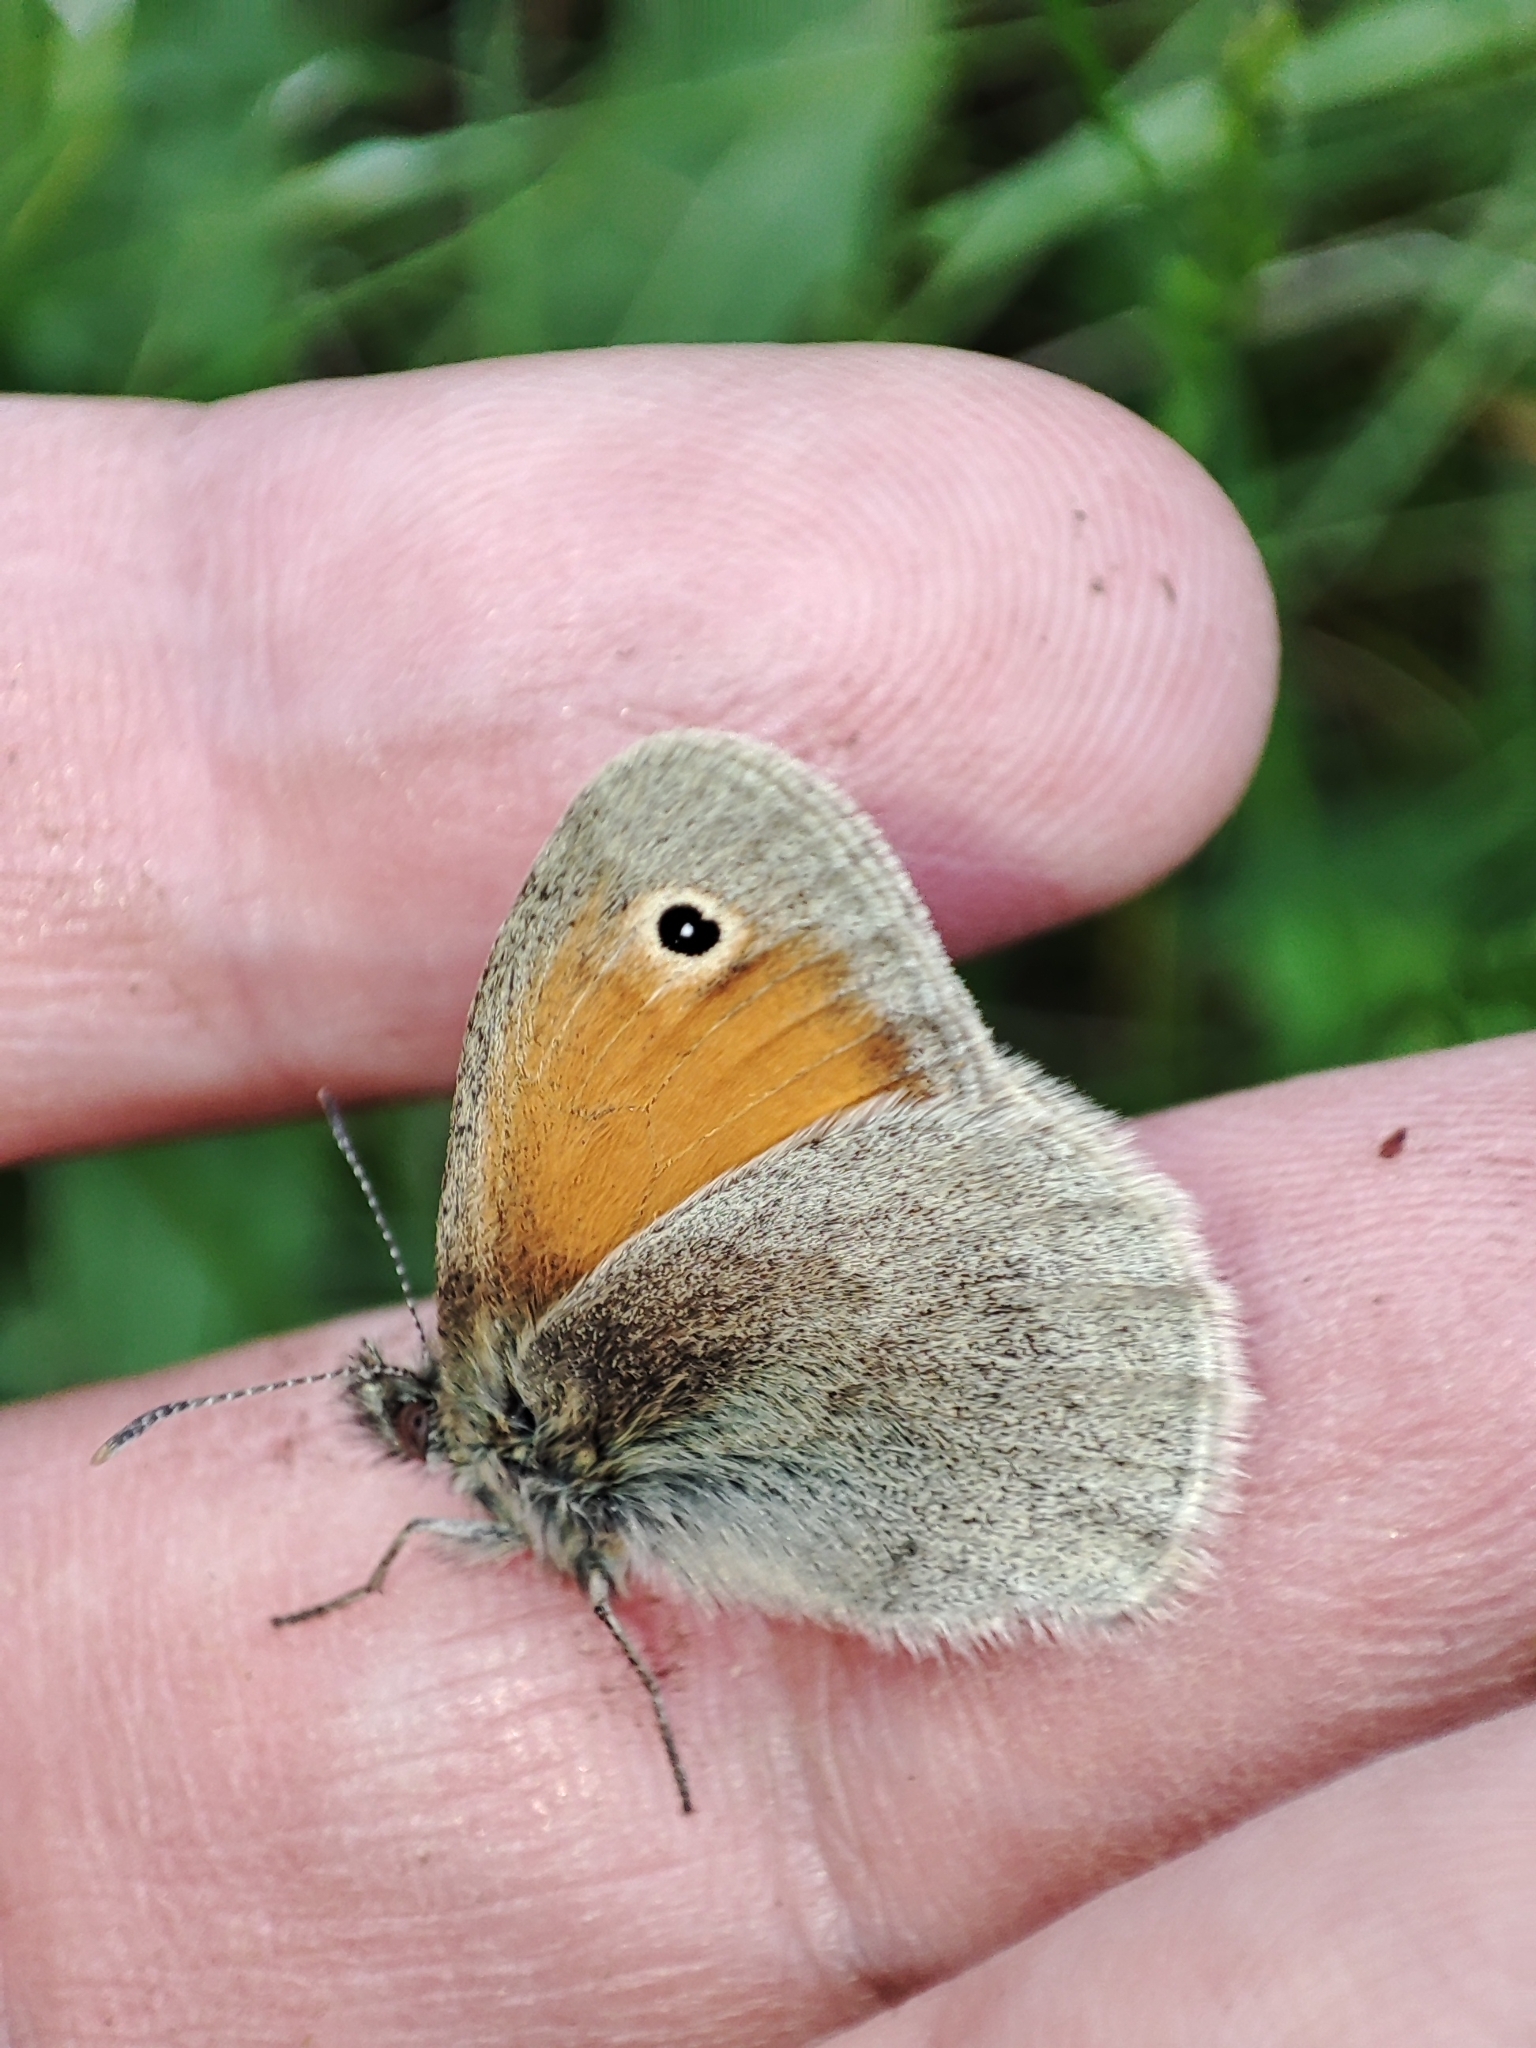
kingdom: Animalia
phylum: Arthropoda
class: Insecta
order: Lepidoptera
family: Nymphalidae
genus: Coenonympha
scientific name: Coenonympha pamphilus
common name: Small heath
